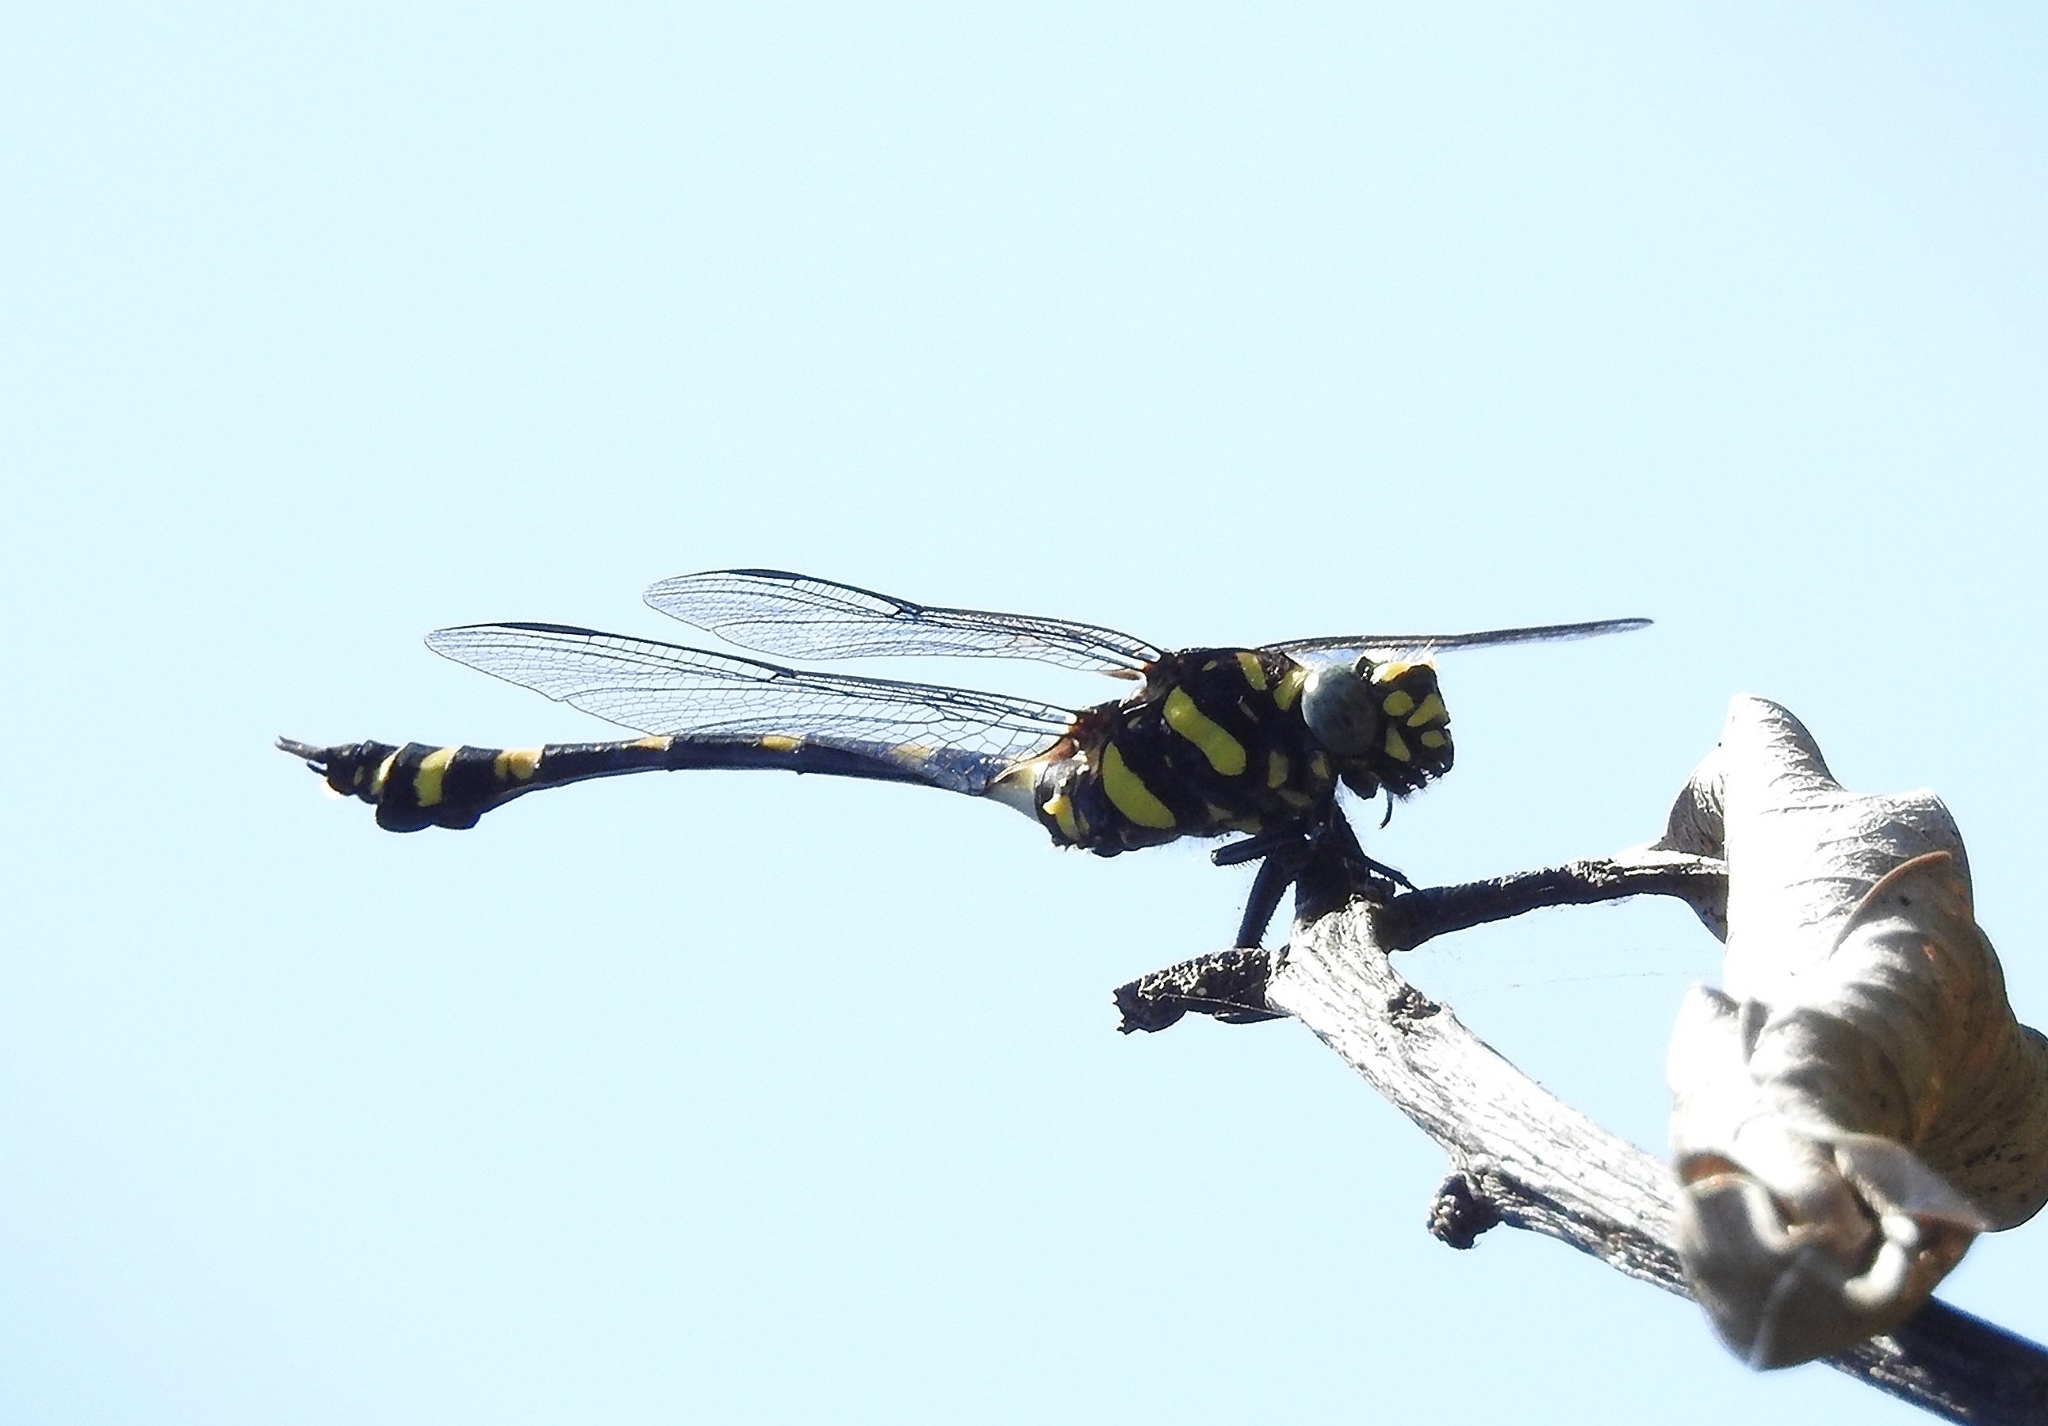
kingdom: Animalia
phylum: Arthropoda
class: Insecta
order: Odonata
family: Gomphidae
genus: Ictinogomphus
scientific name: Ictinogomphus rapax
